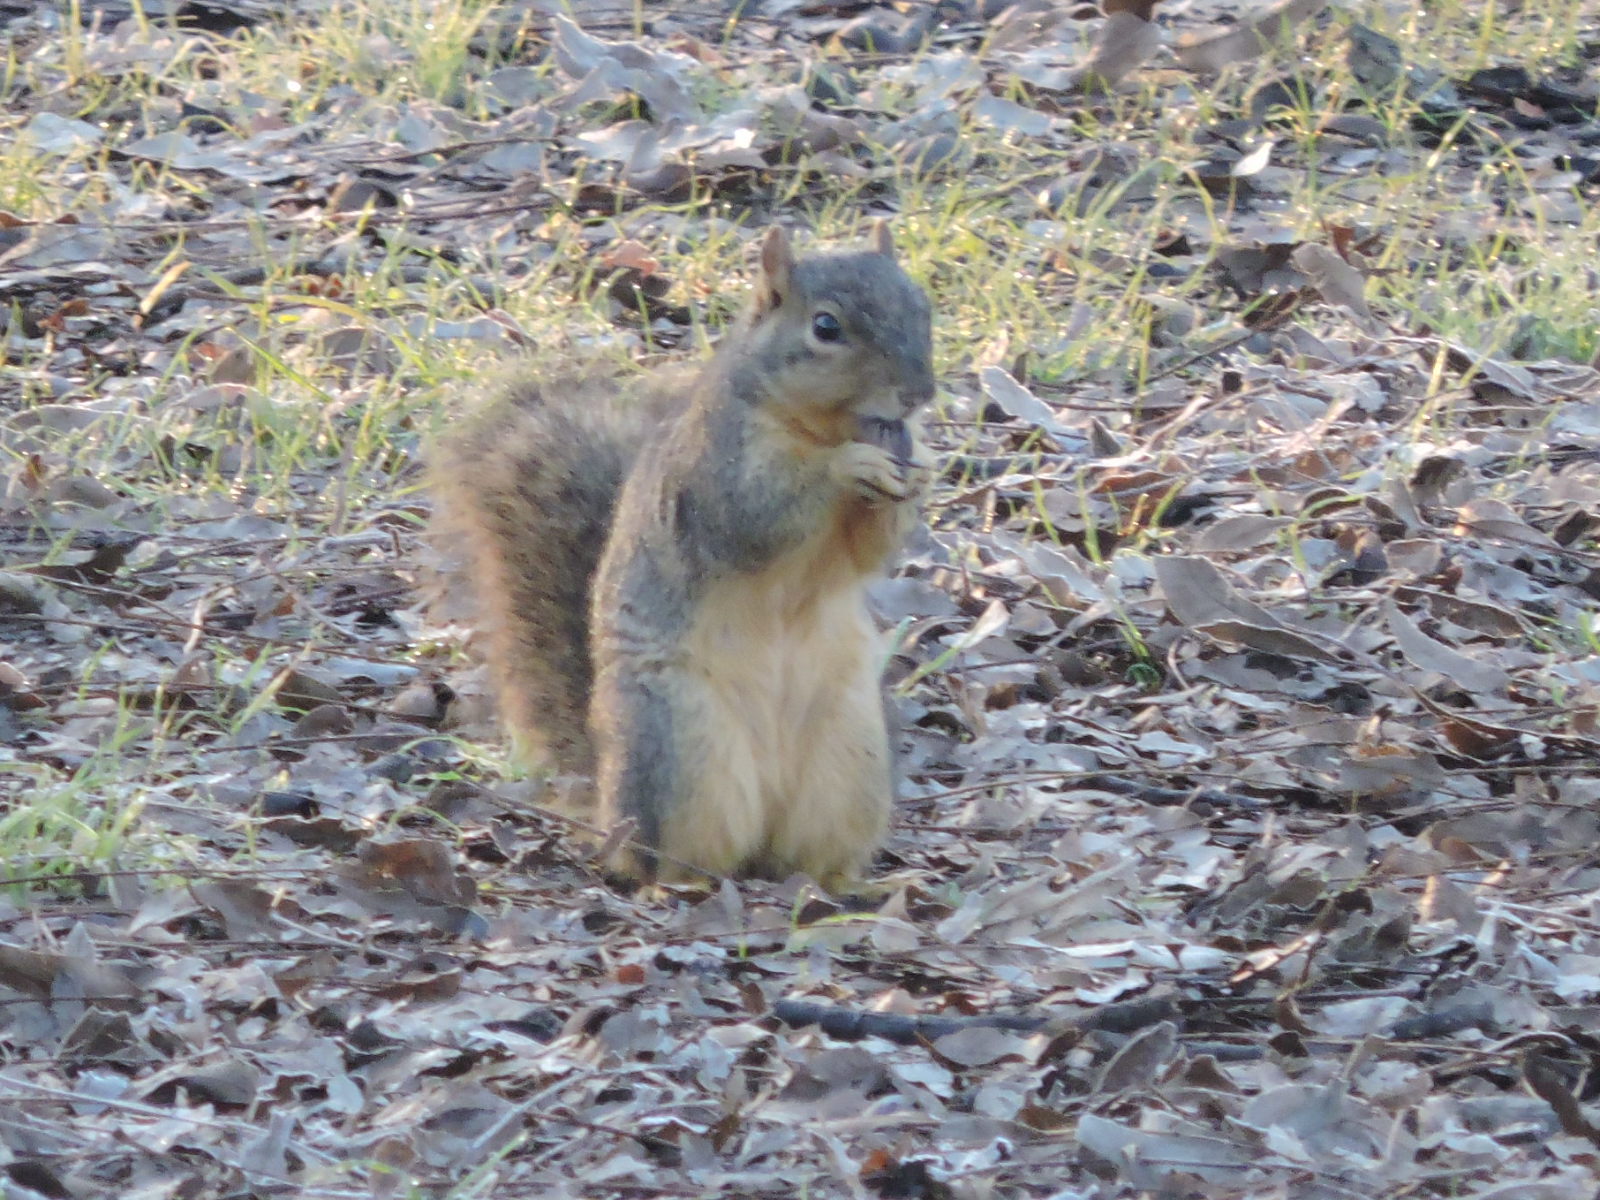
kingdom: Animalia
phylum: Chordata
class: Mammalia
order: Rodentia
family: Sciuridae
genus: Sciurus
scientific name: Sciurus niger
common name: Fox squirrel
